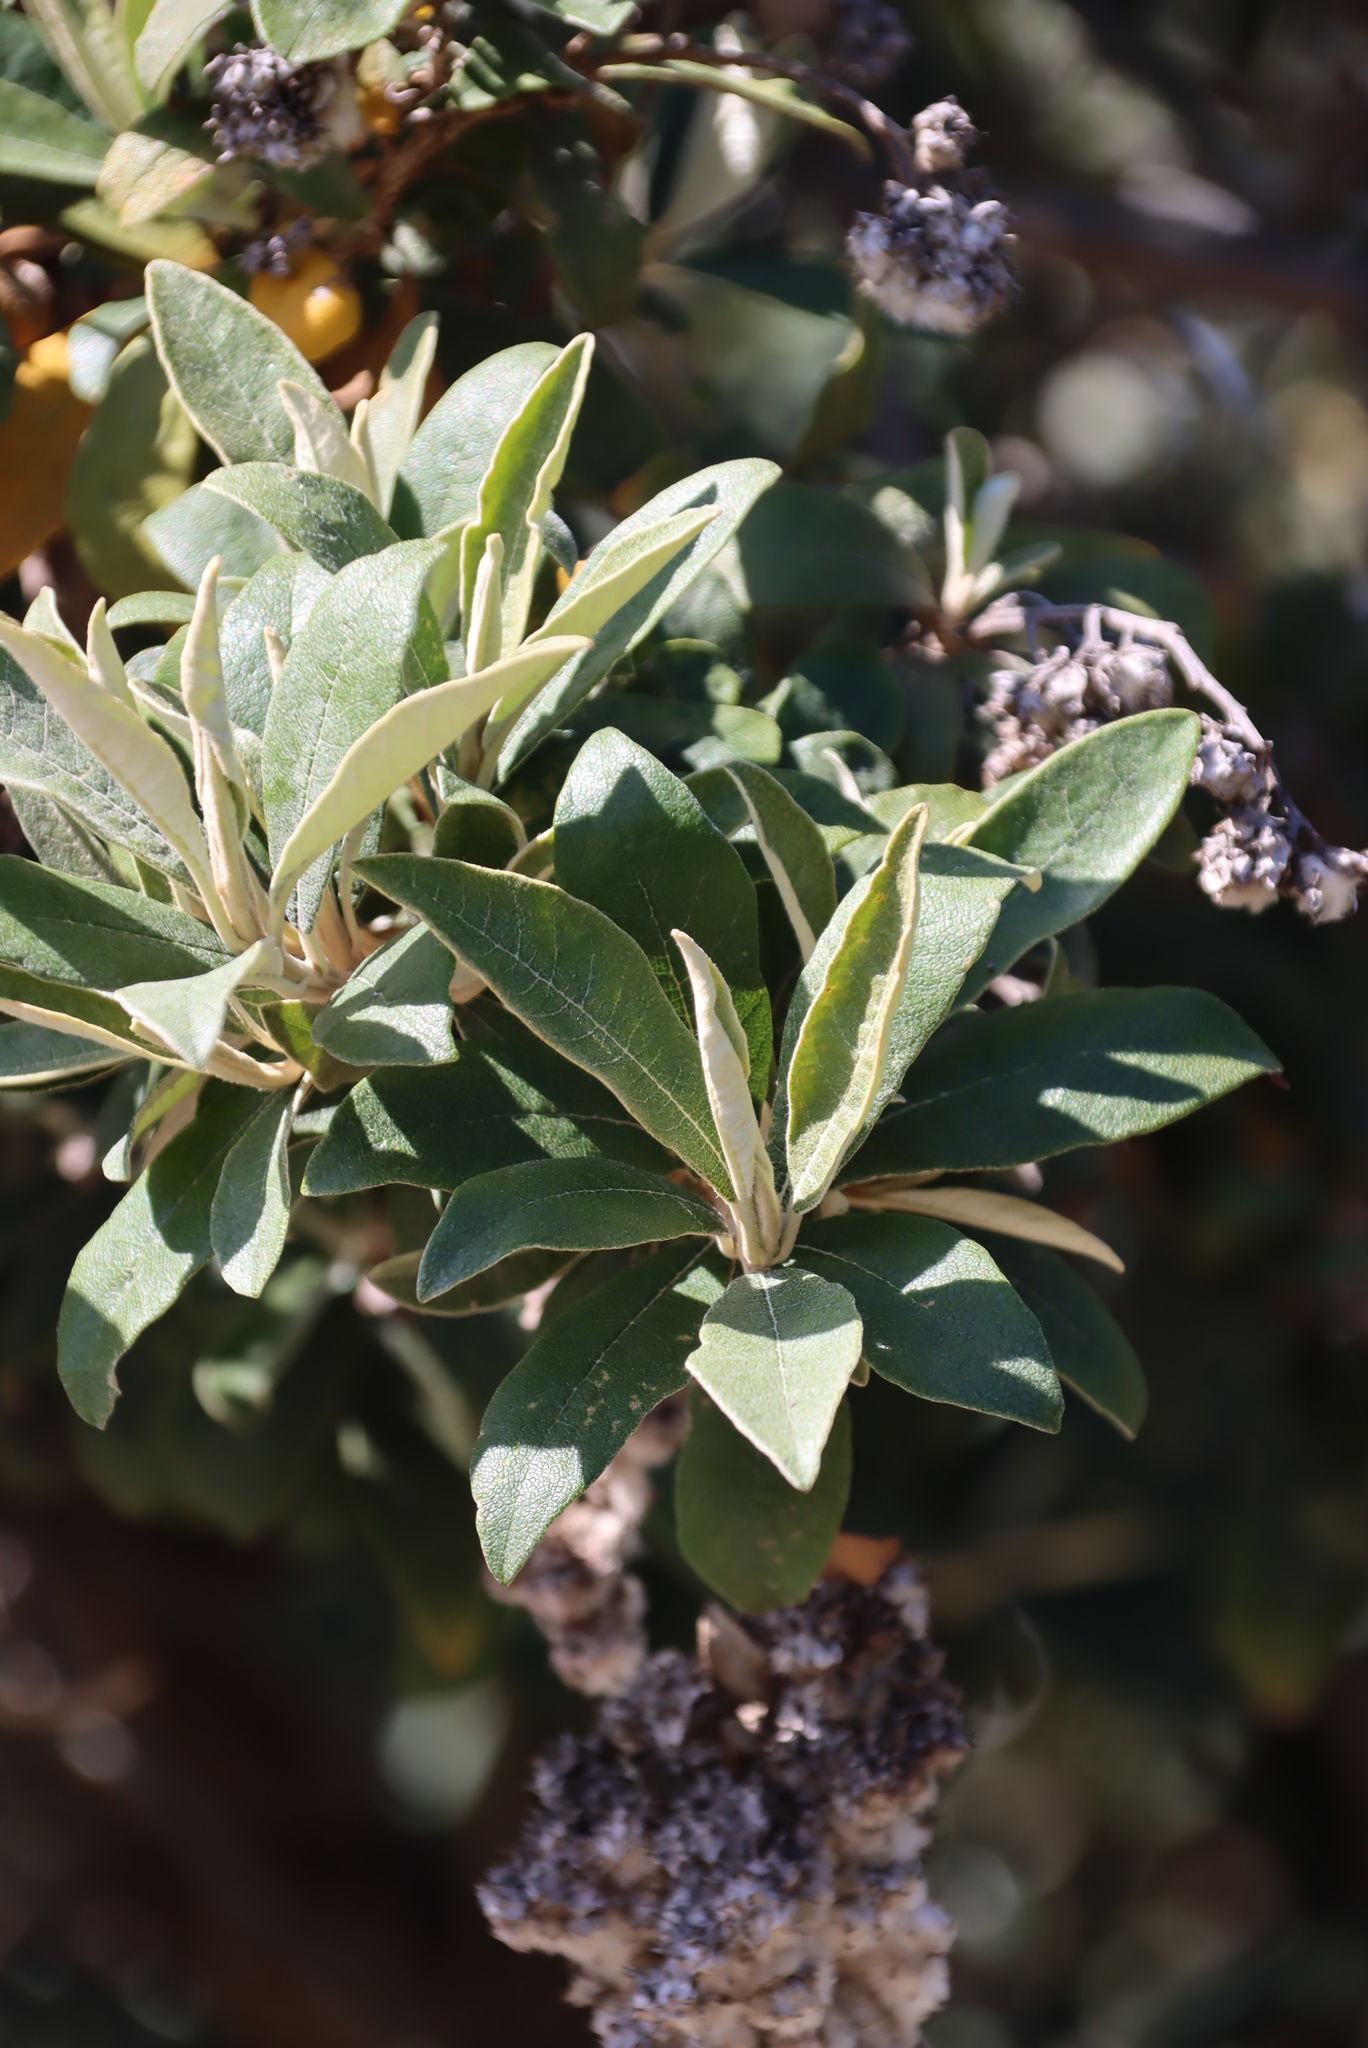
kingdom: Plantae
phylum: Tracheophyta
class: Magnoliopsida
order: Asterales
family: Asteraceae
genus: Tarchonanthus
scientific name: Tarchonanthus littoralis
